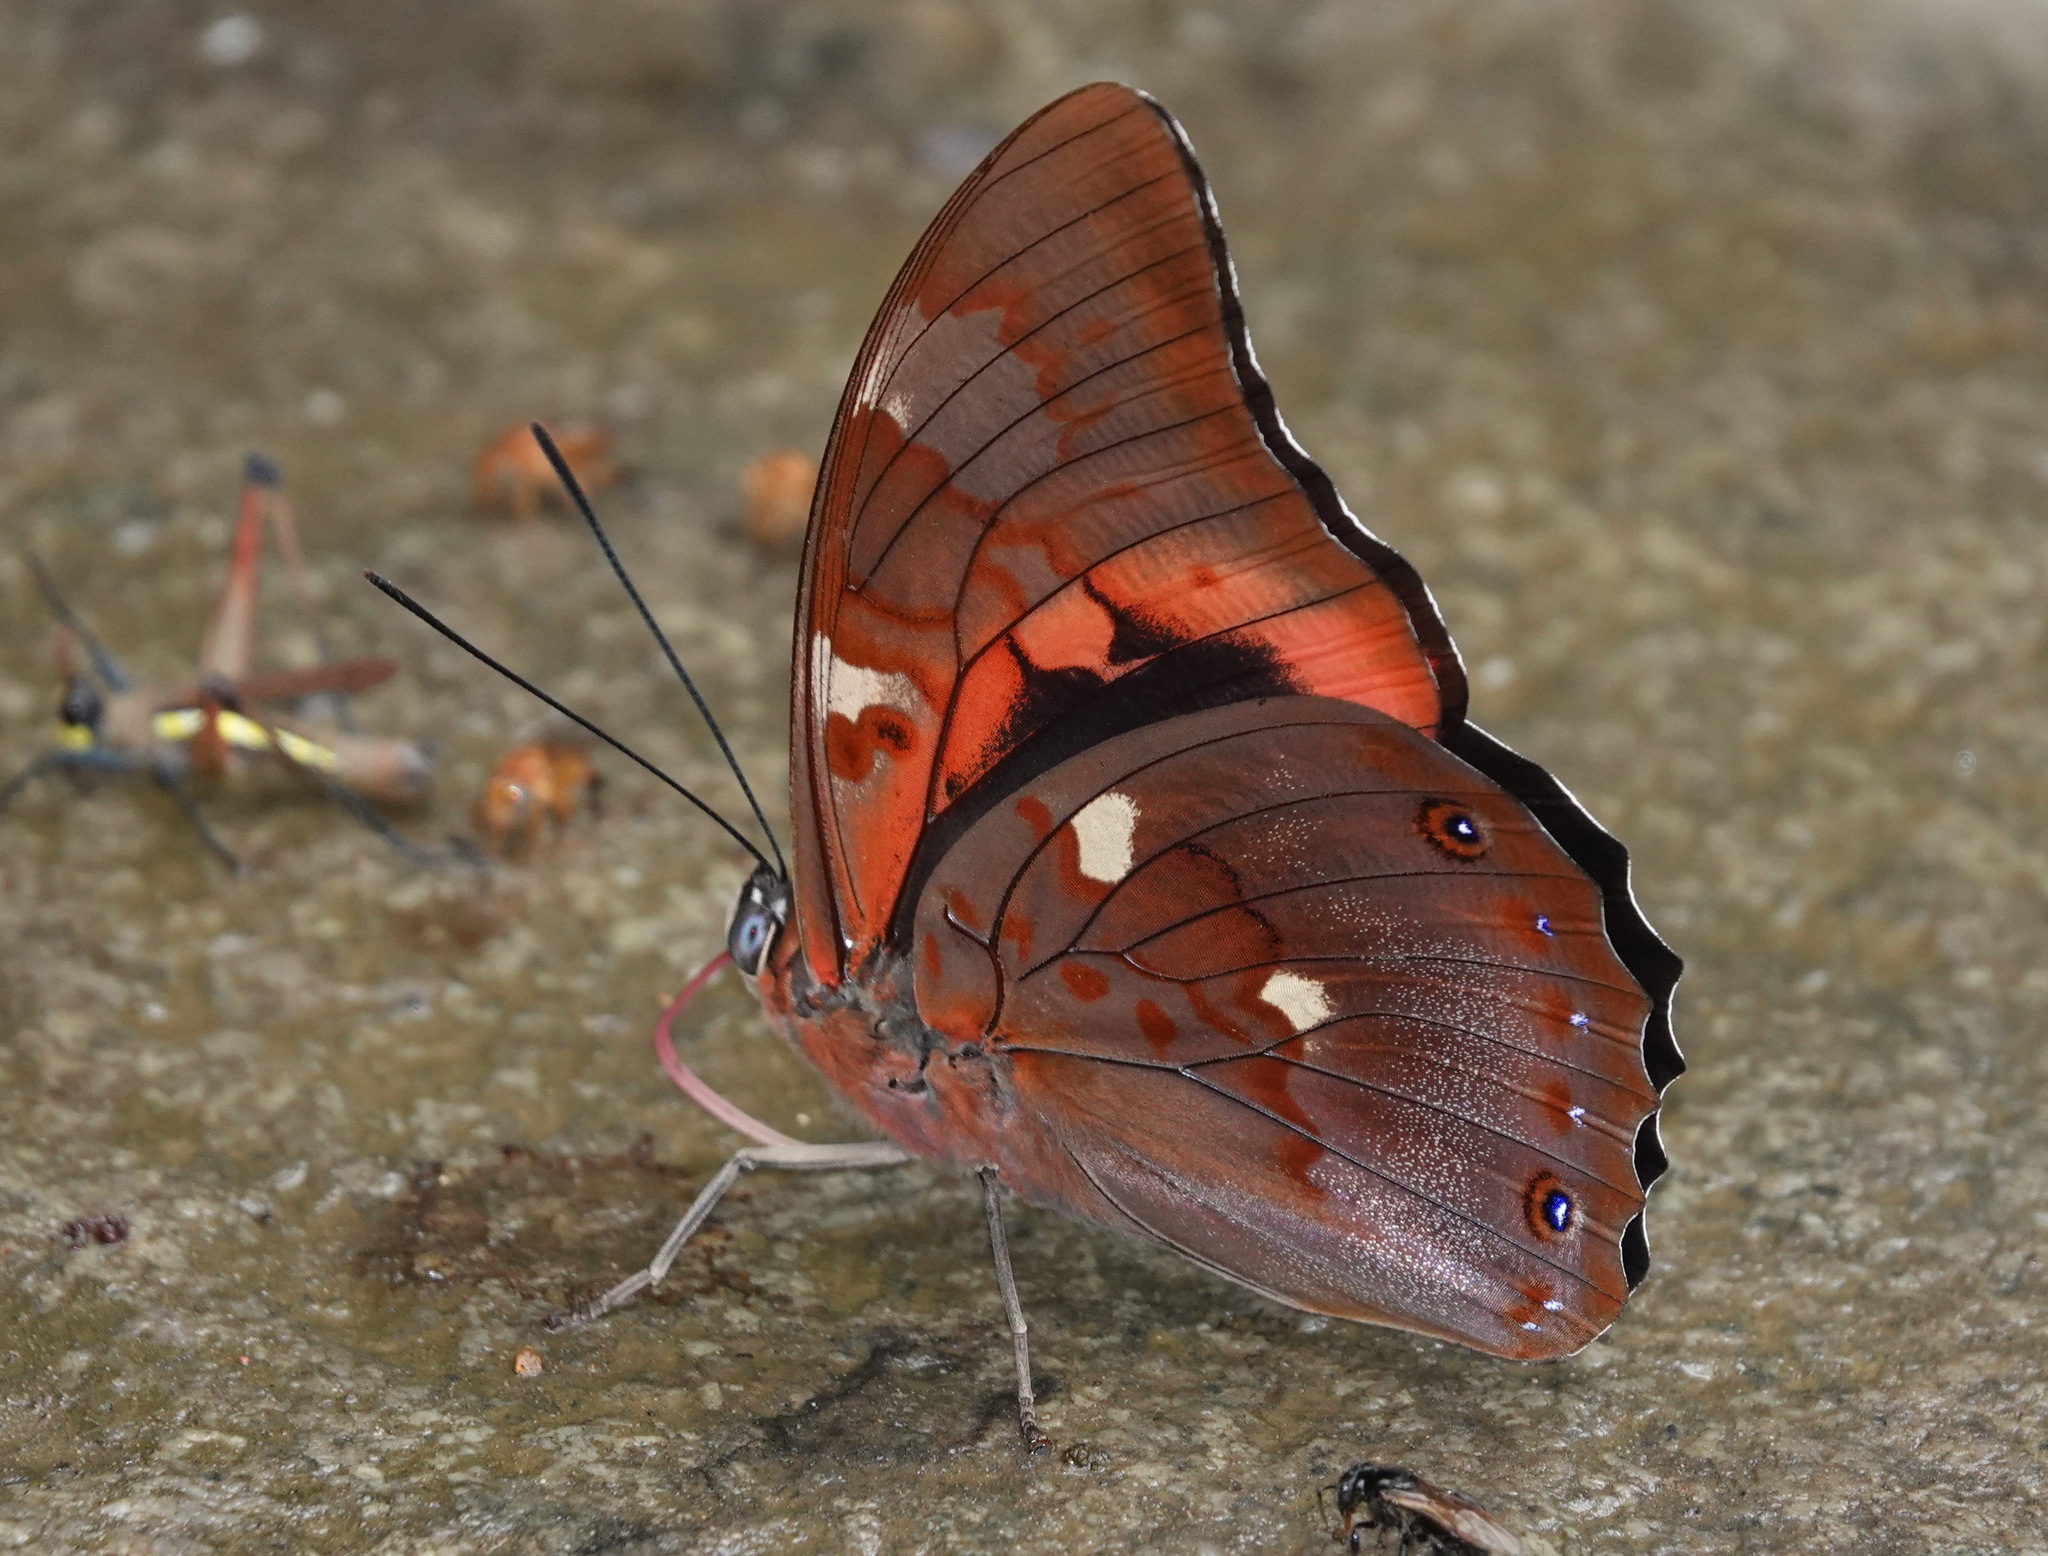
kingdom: Animalia
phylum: Arthropoda
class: Insecta
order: Lepidoptera
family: Nymphalidae
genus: Prepona
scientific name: Prepona praeneste
